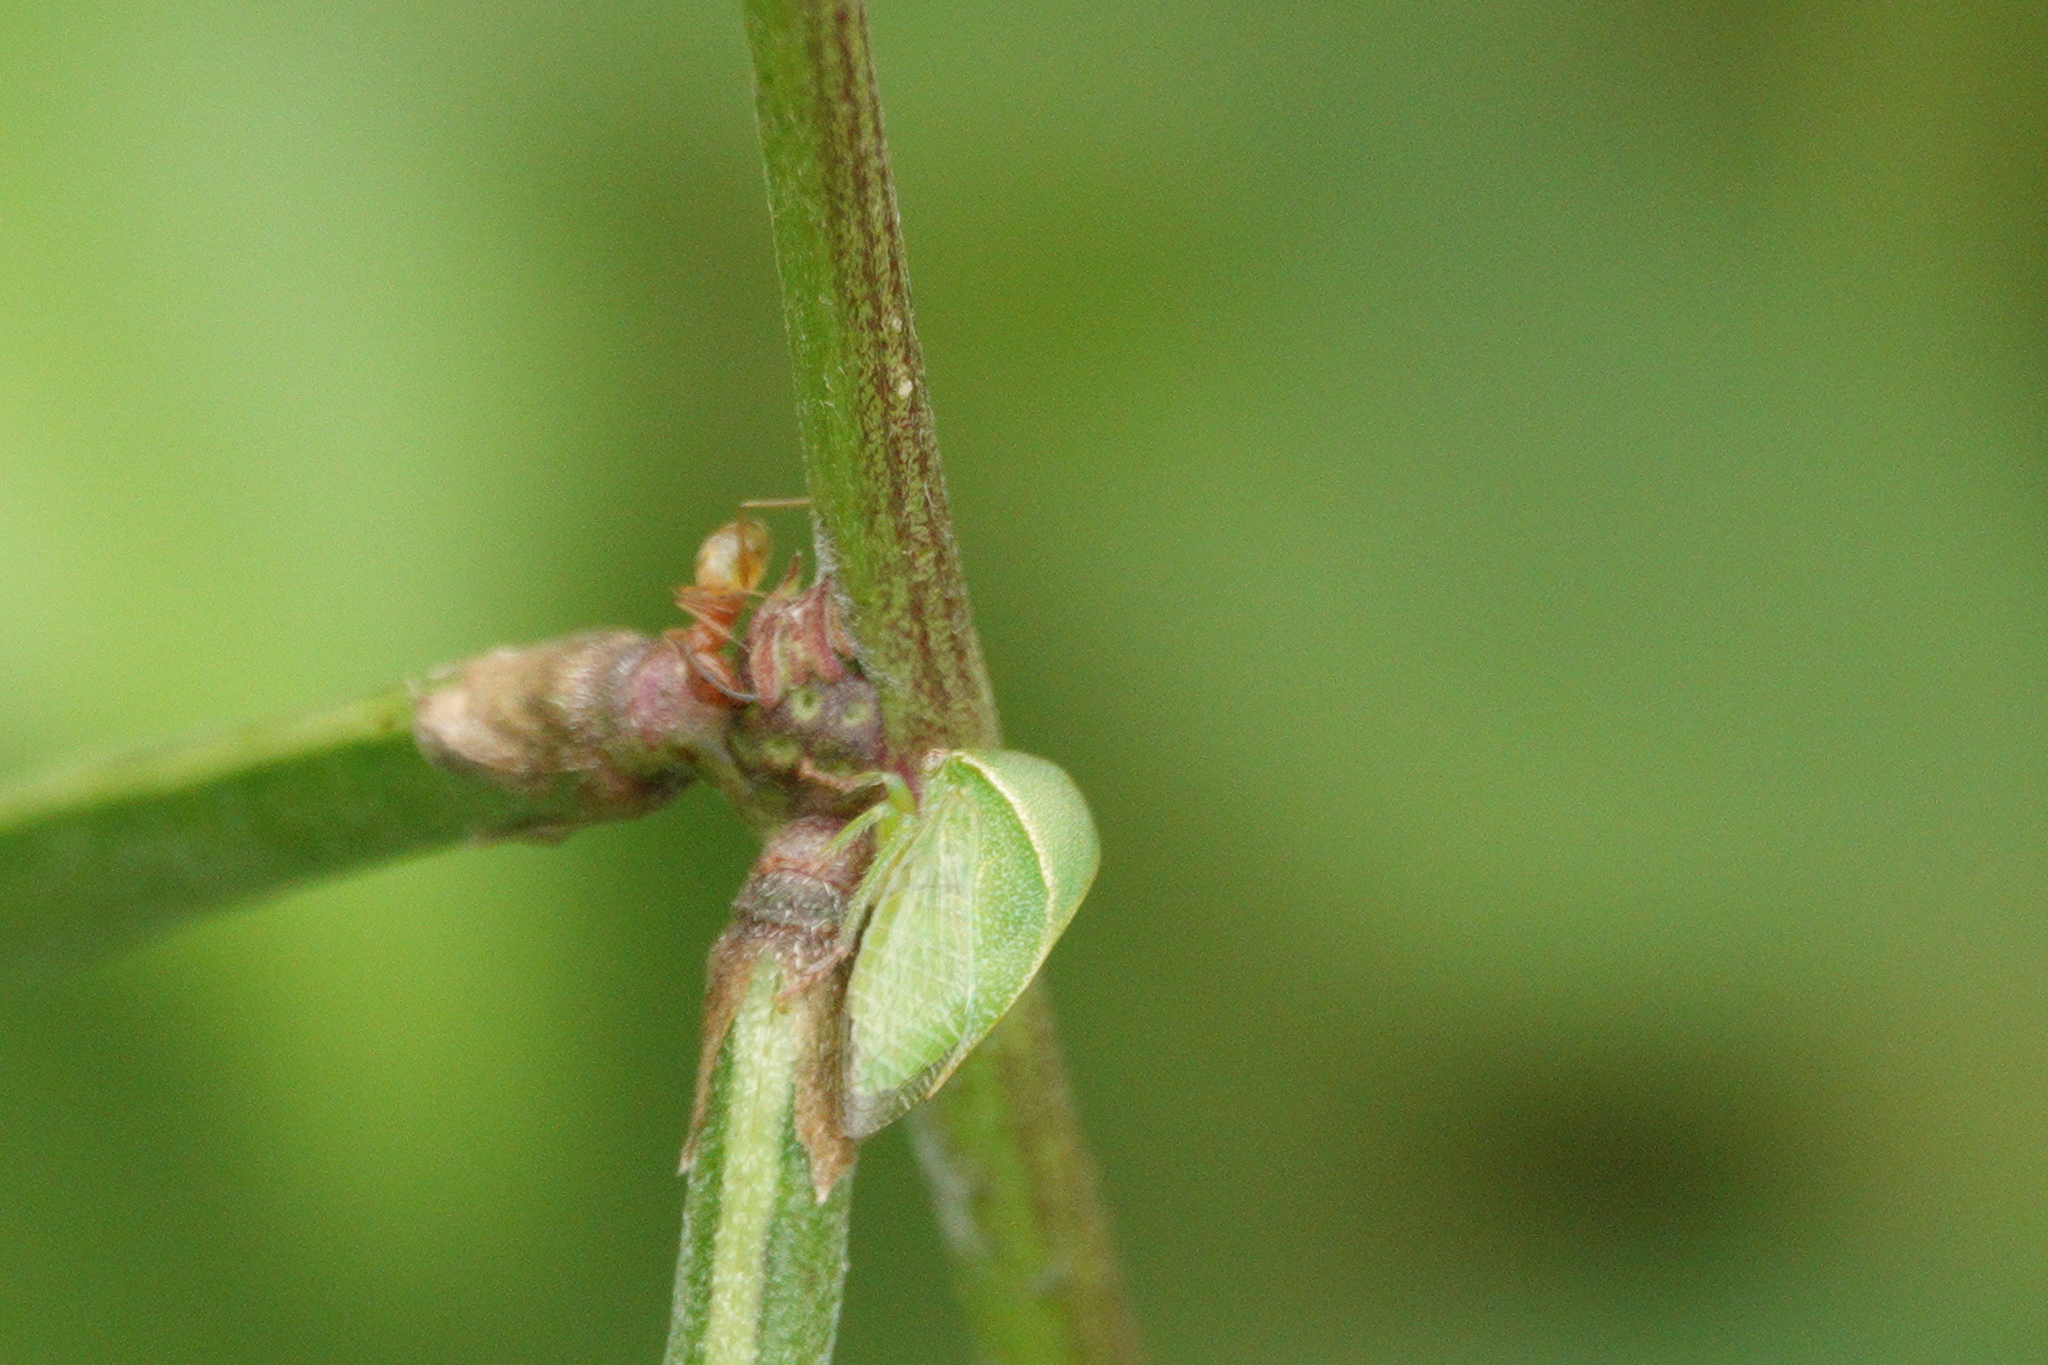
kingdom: Animalia
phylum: Arthropoda
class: Insecta
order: Hemiptera
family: Membracidae
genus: Spissistilus
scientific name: Spissistilus festina
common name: Membracid bug
